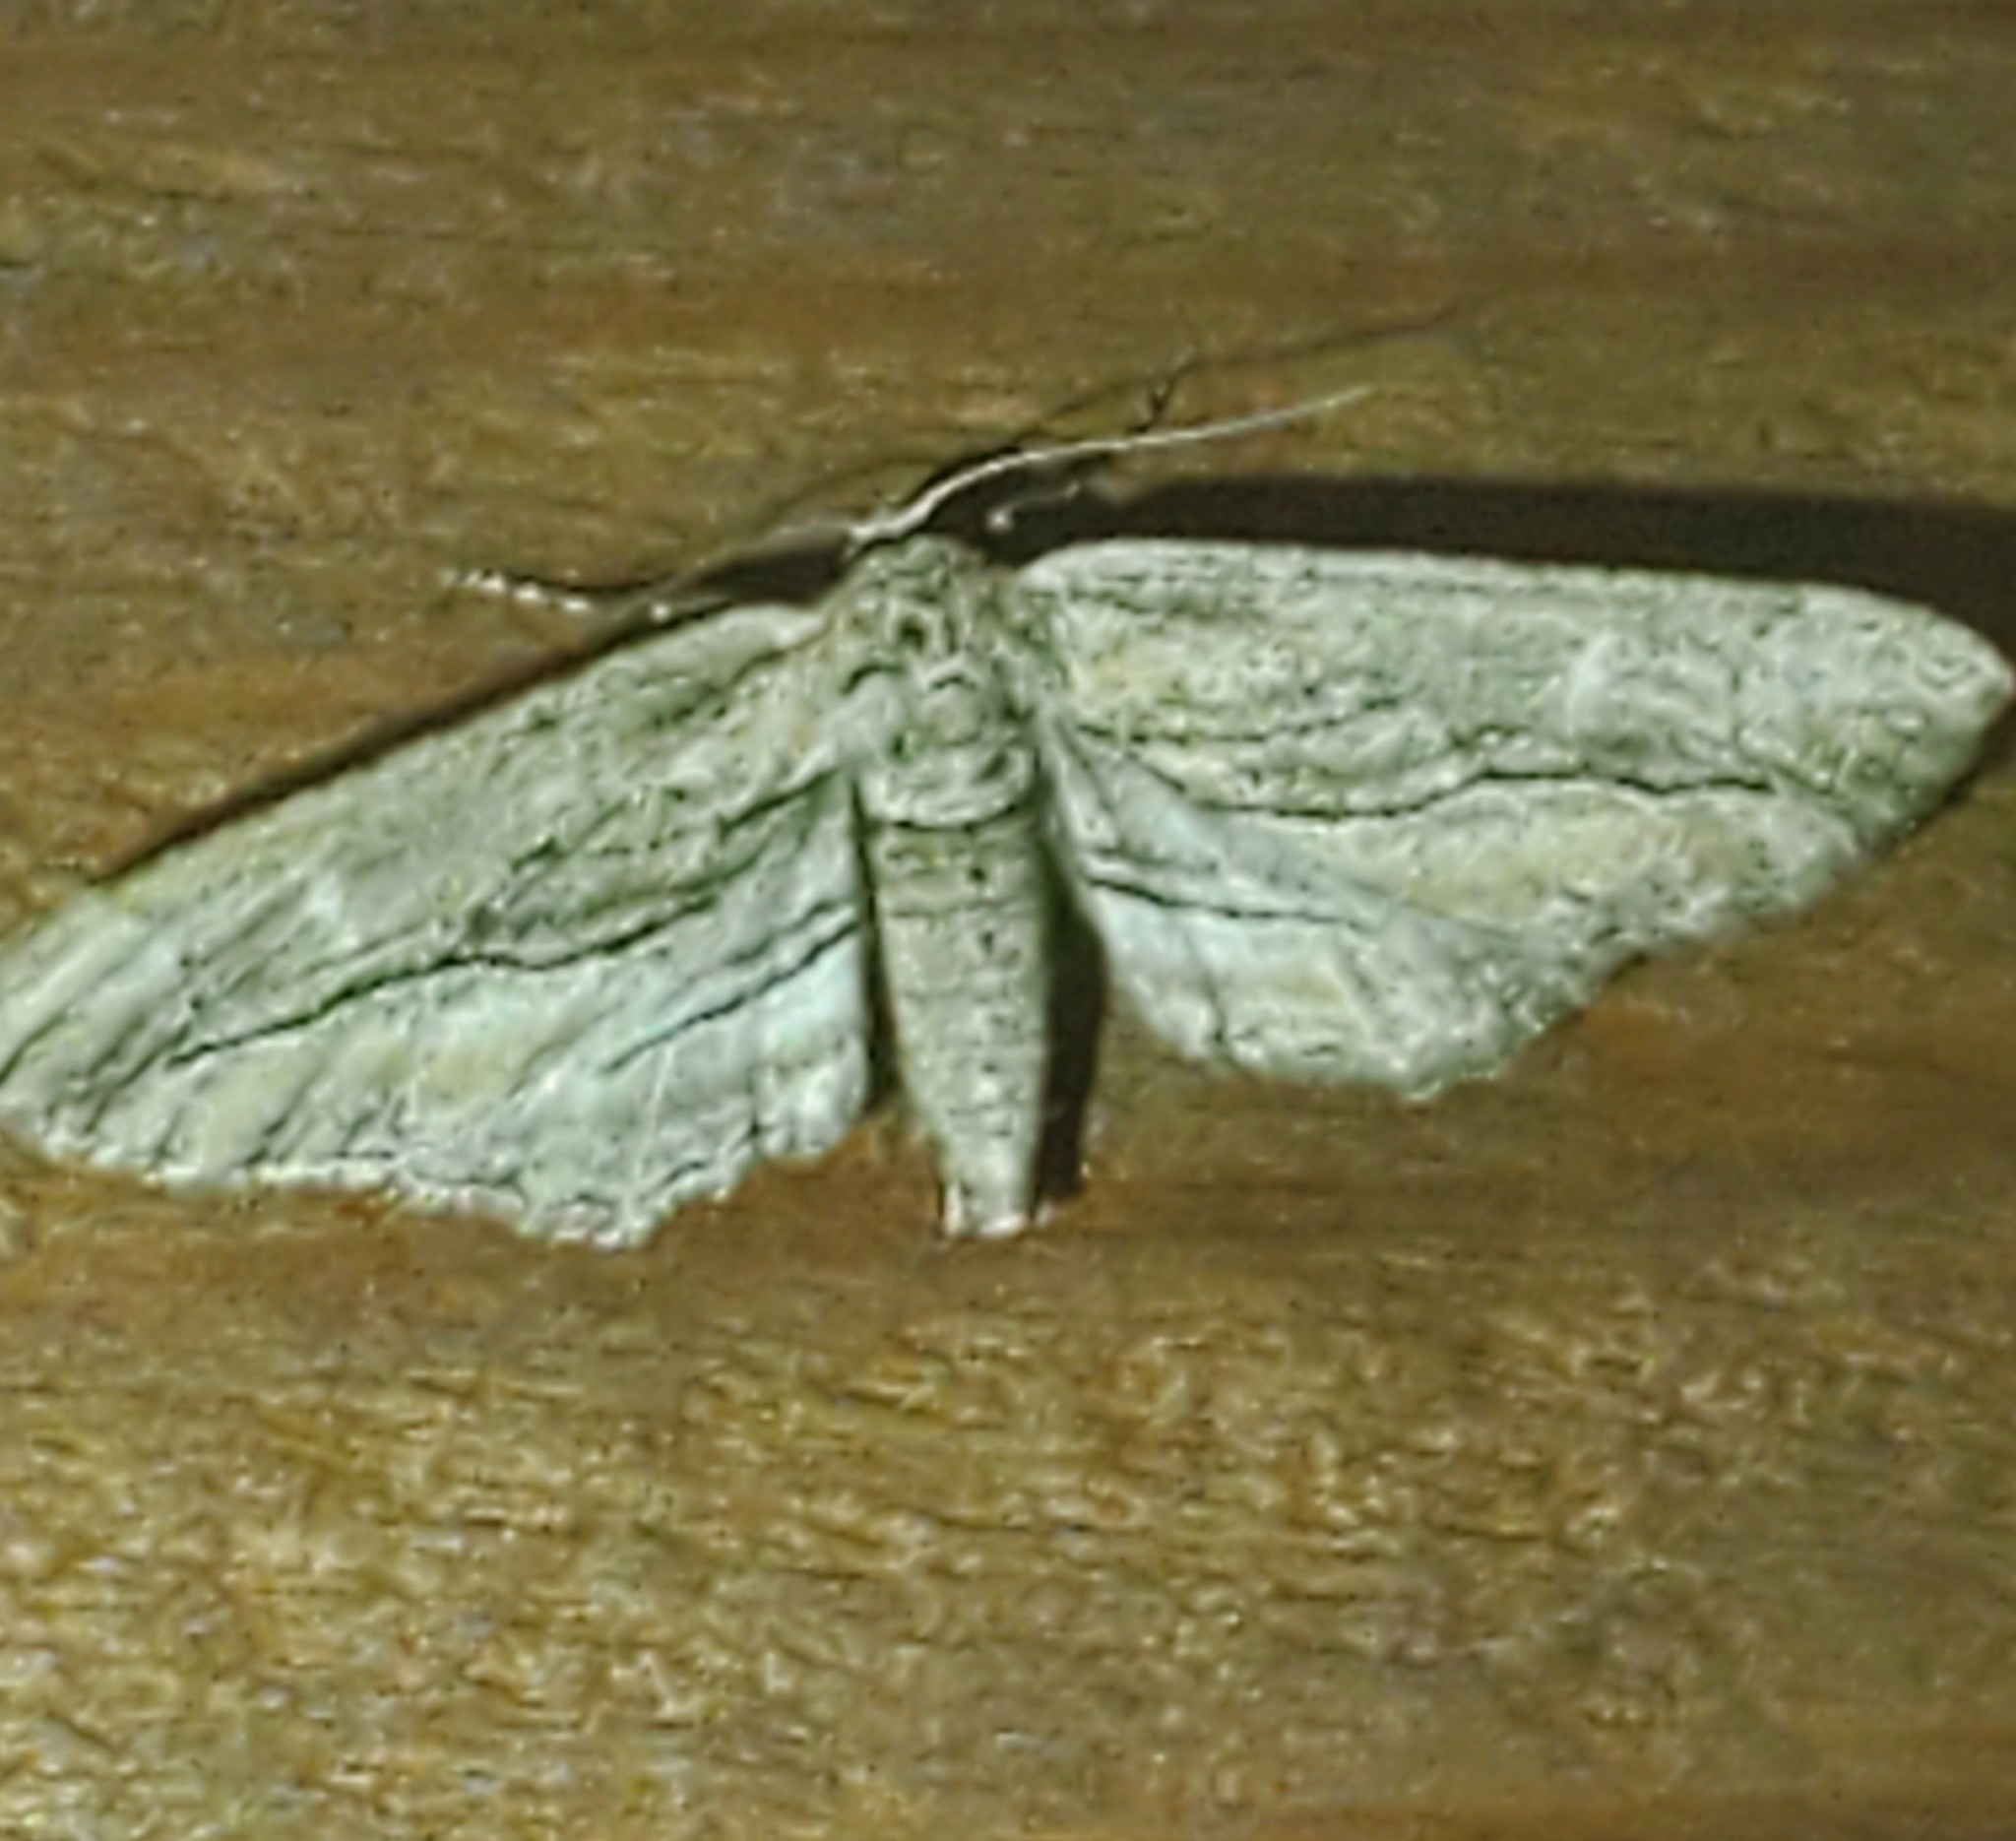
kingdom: Animalia
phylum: Arthropoda
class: Insecta
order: Lepidoptera
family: Geometridae
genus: Glena
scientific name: Glena quinquelinearia
